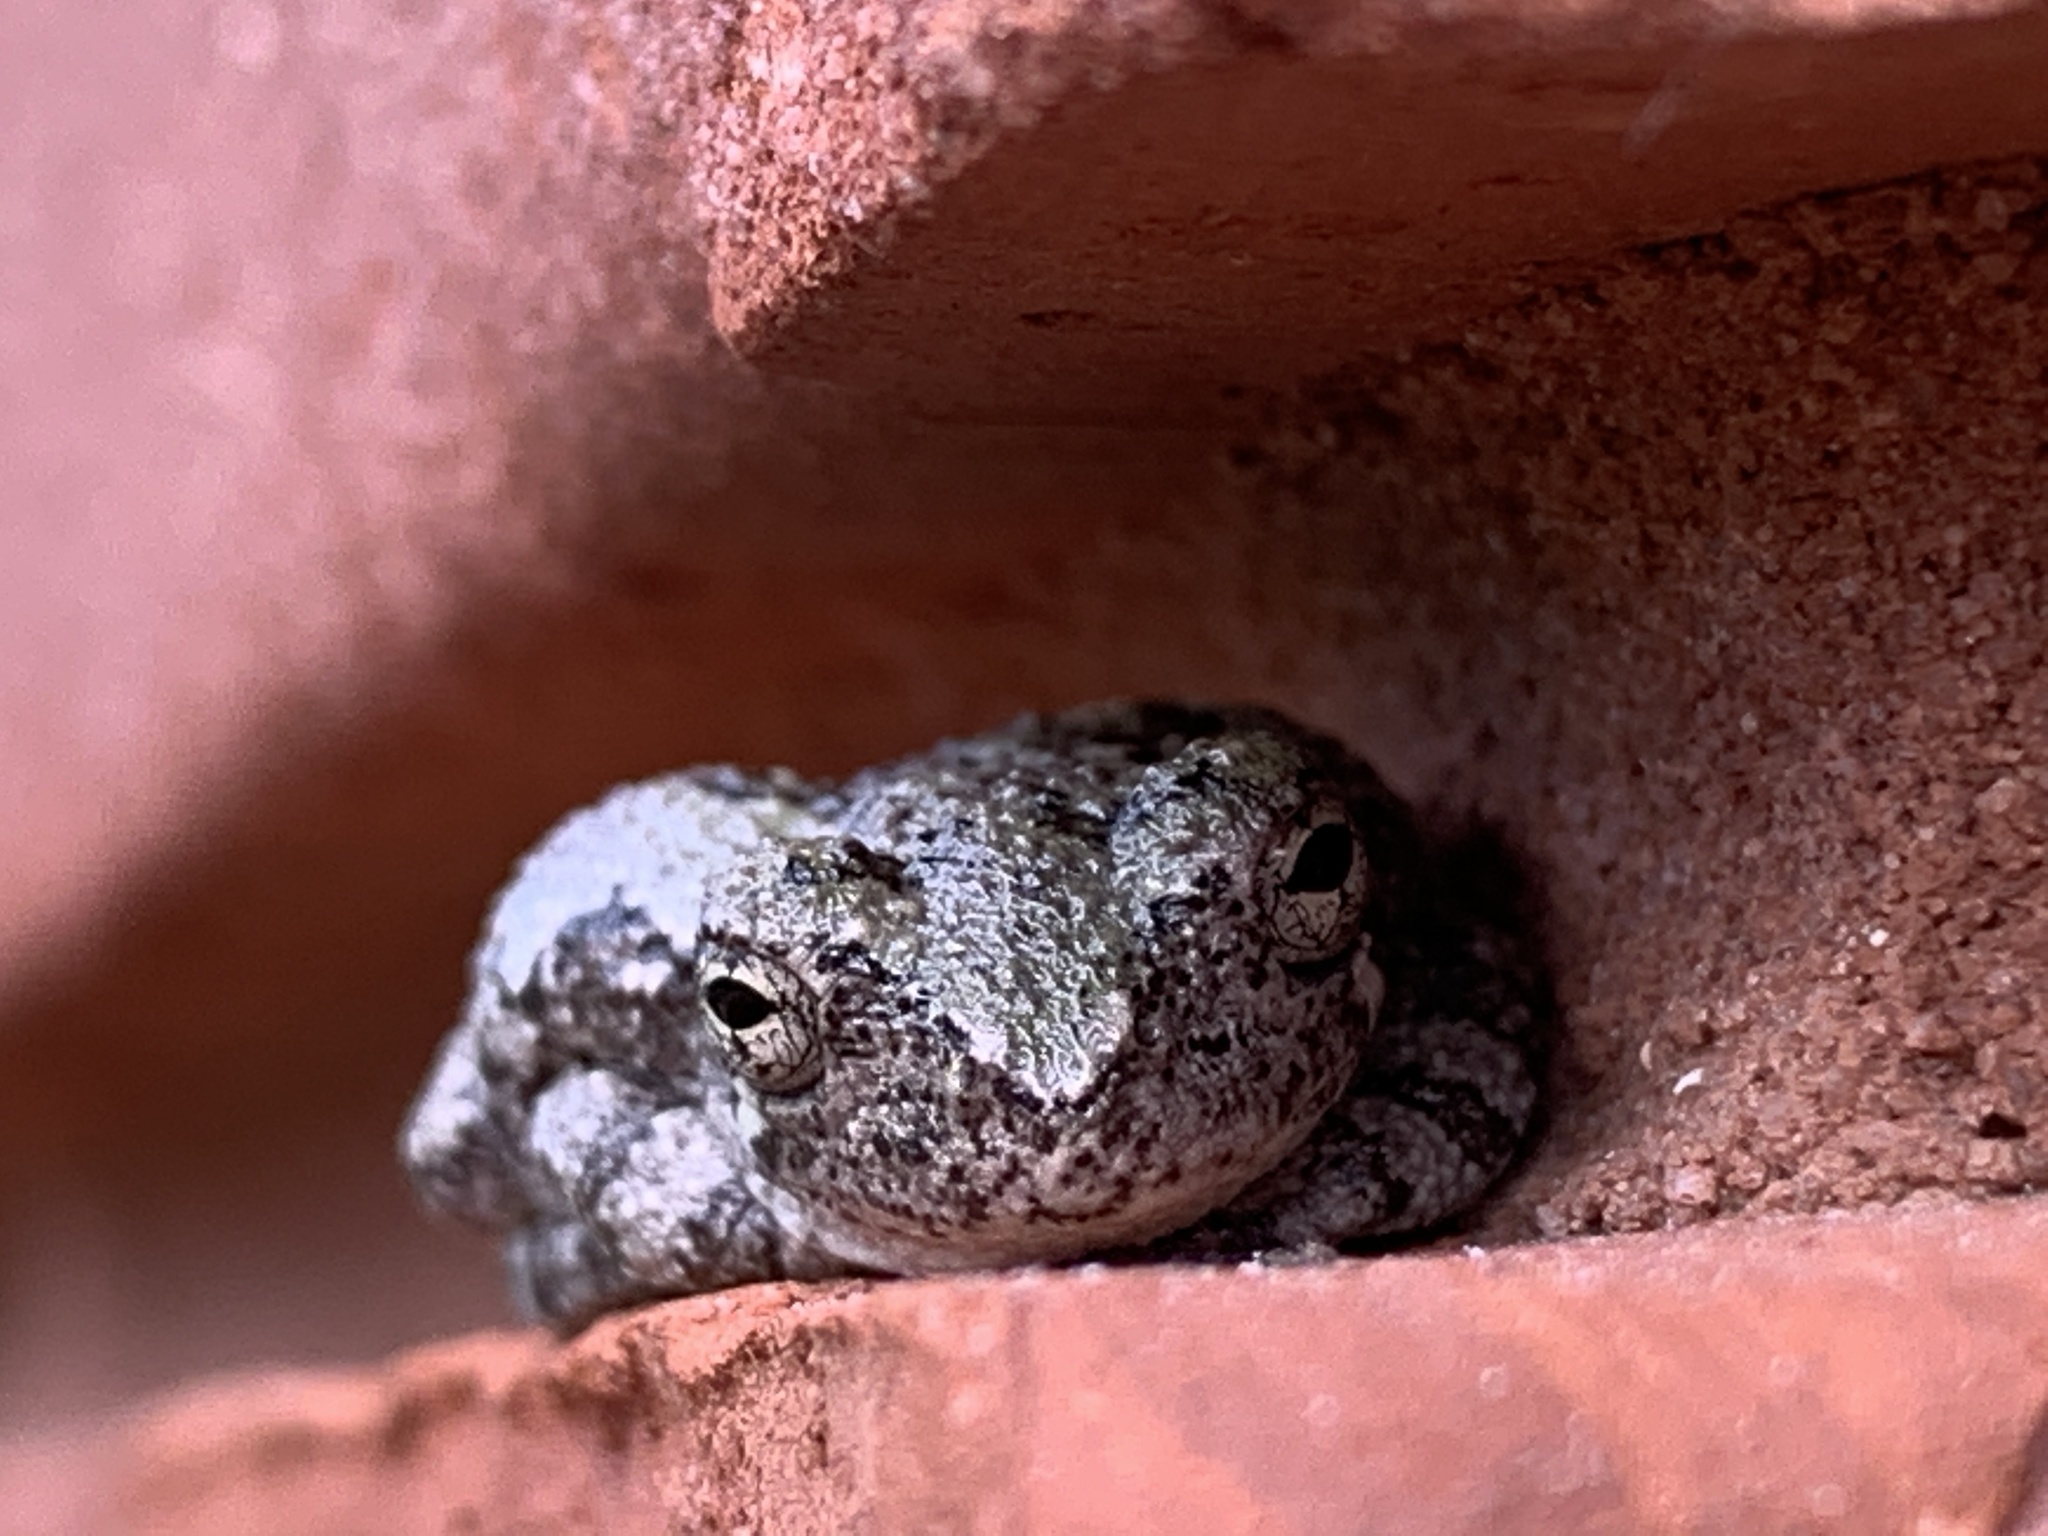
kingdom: Animalia
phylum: Chordata
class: Amphibia
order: Anura
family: Hylidae
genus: Dryophytes
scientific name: Dryophytes chrysoscelis
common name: Cope's gray treefrog
